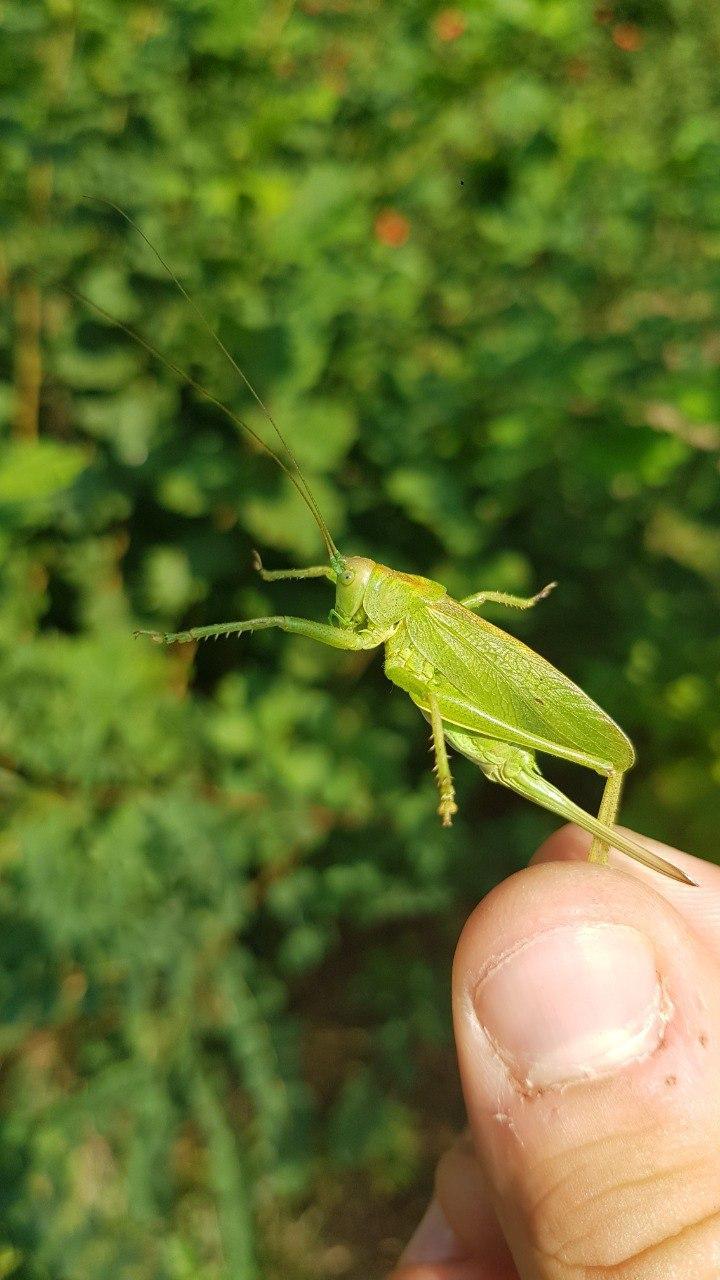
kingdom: Animalia
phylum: Arthropoda
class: Insecta
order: Orthoptera
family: Tettigoniidae
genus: Tettigonia
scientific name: Tettigonia cantans
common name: Upland green bush-cricket
